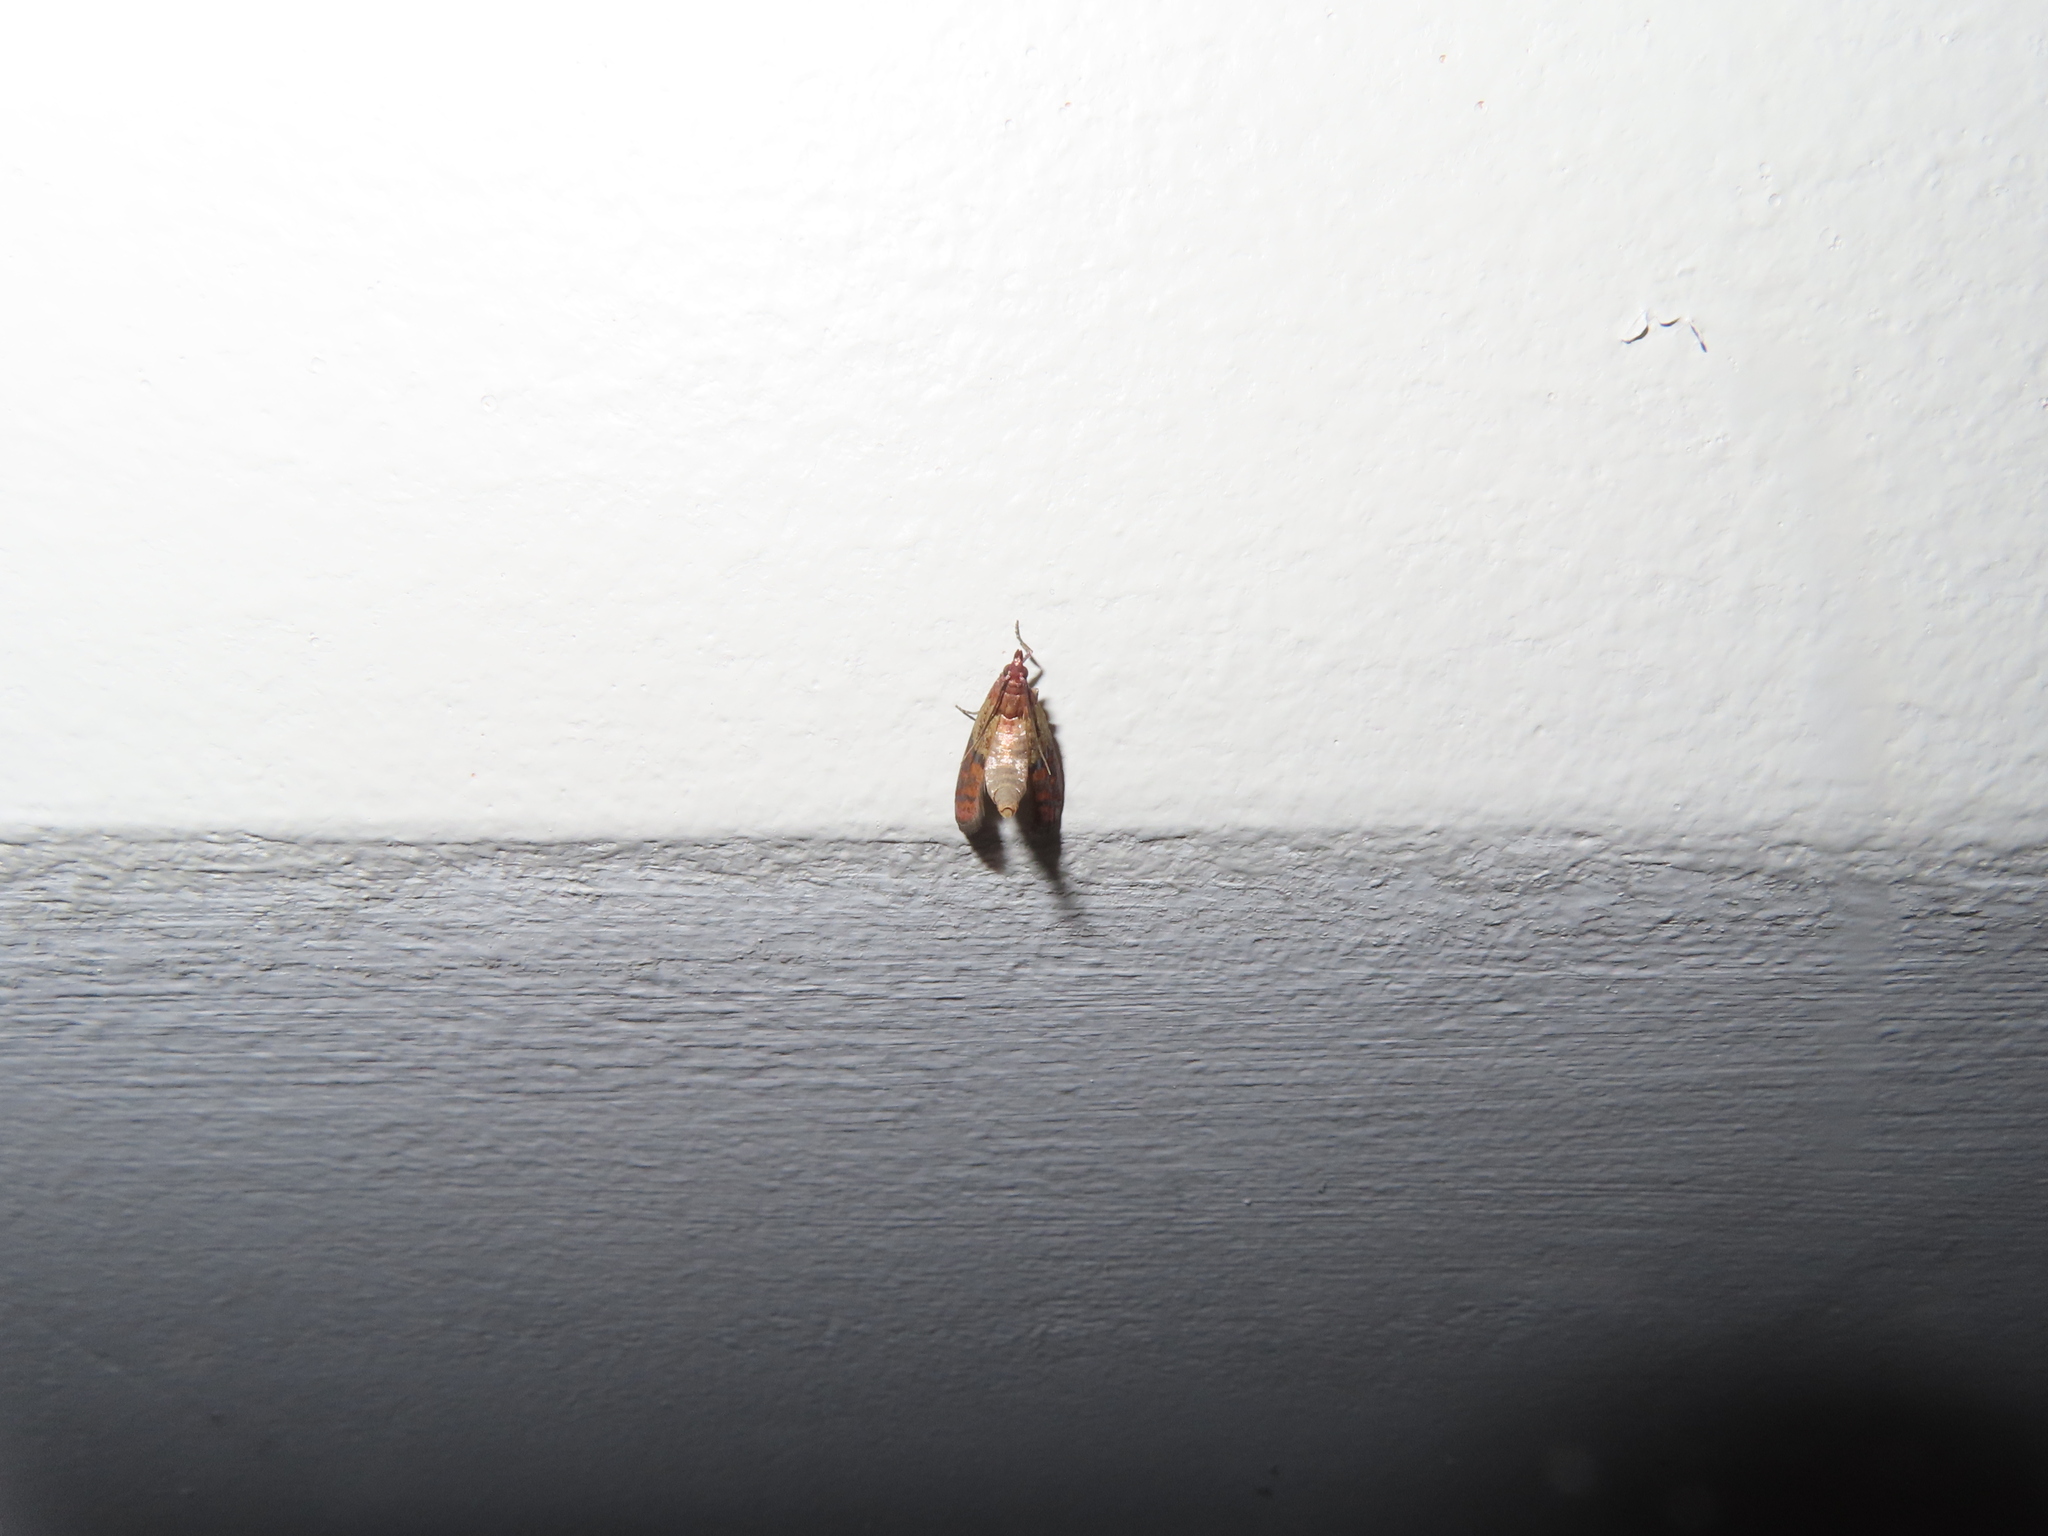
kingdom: Animalia
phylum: Arthropoda
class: Insecta
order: Lepidoptera
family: Pyralidae
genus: Plodia
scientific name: Plodia interpunctella
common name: Indian meal moth
